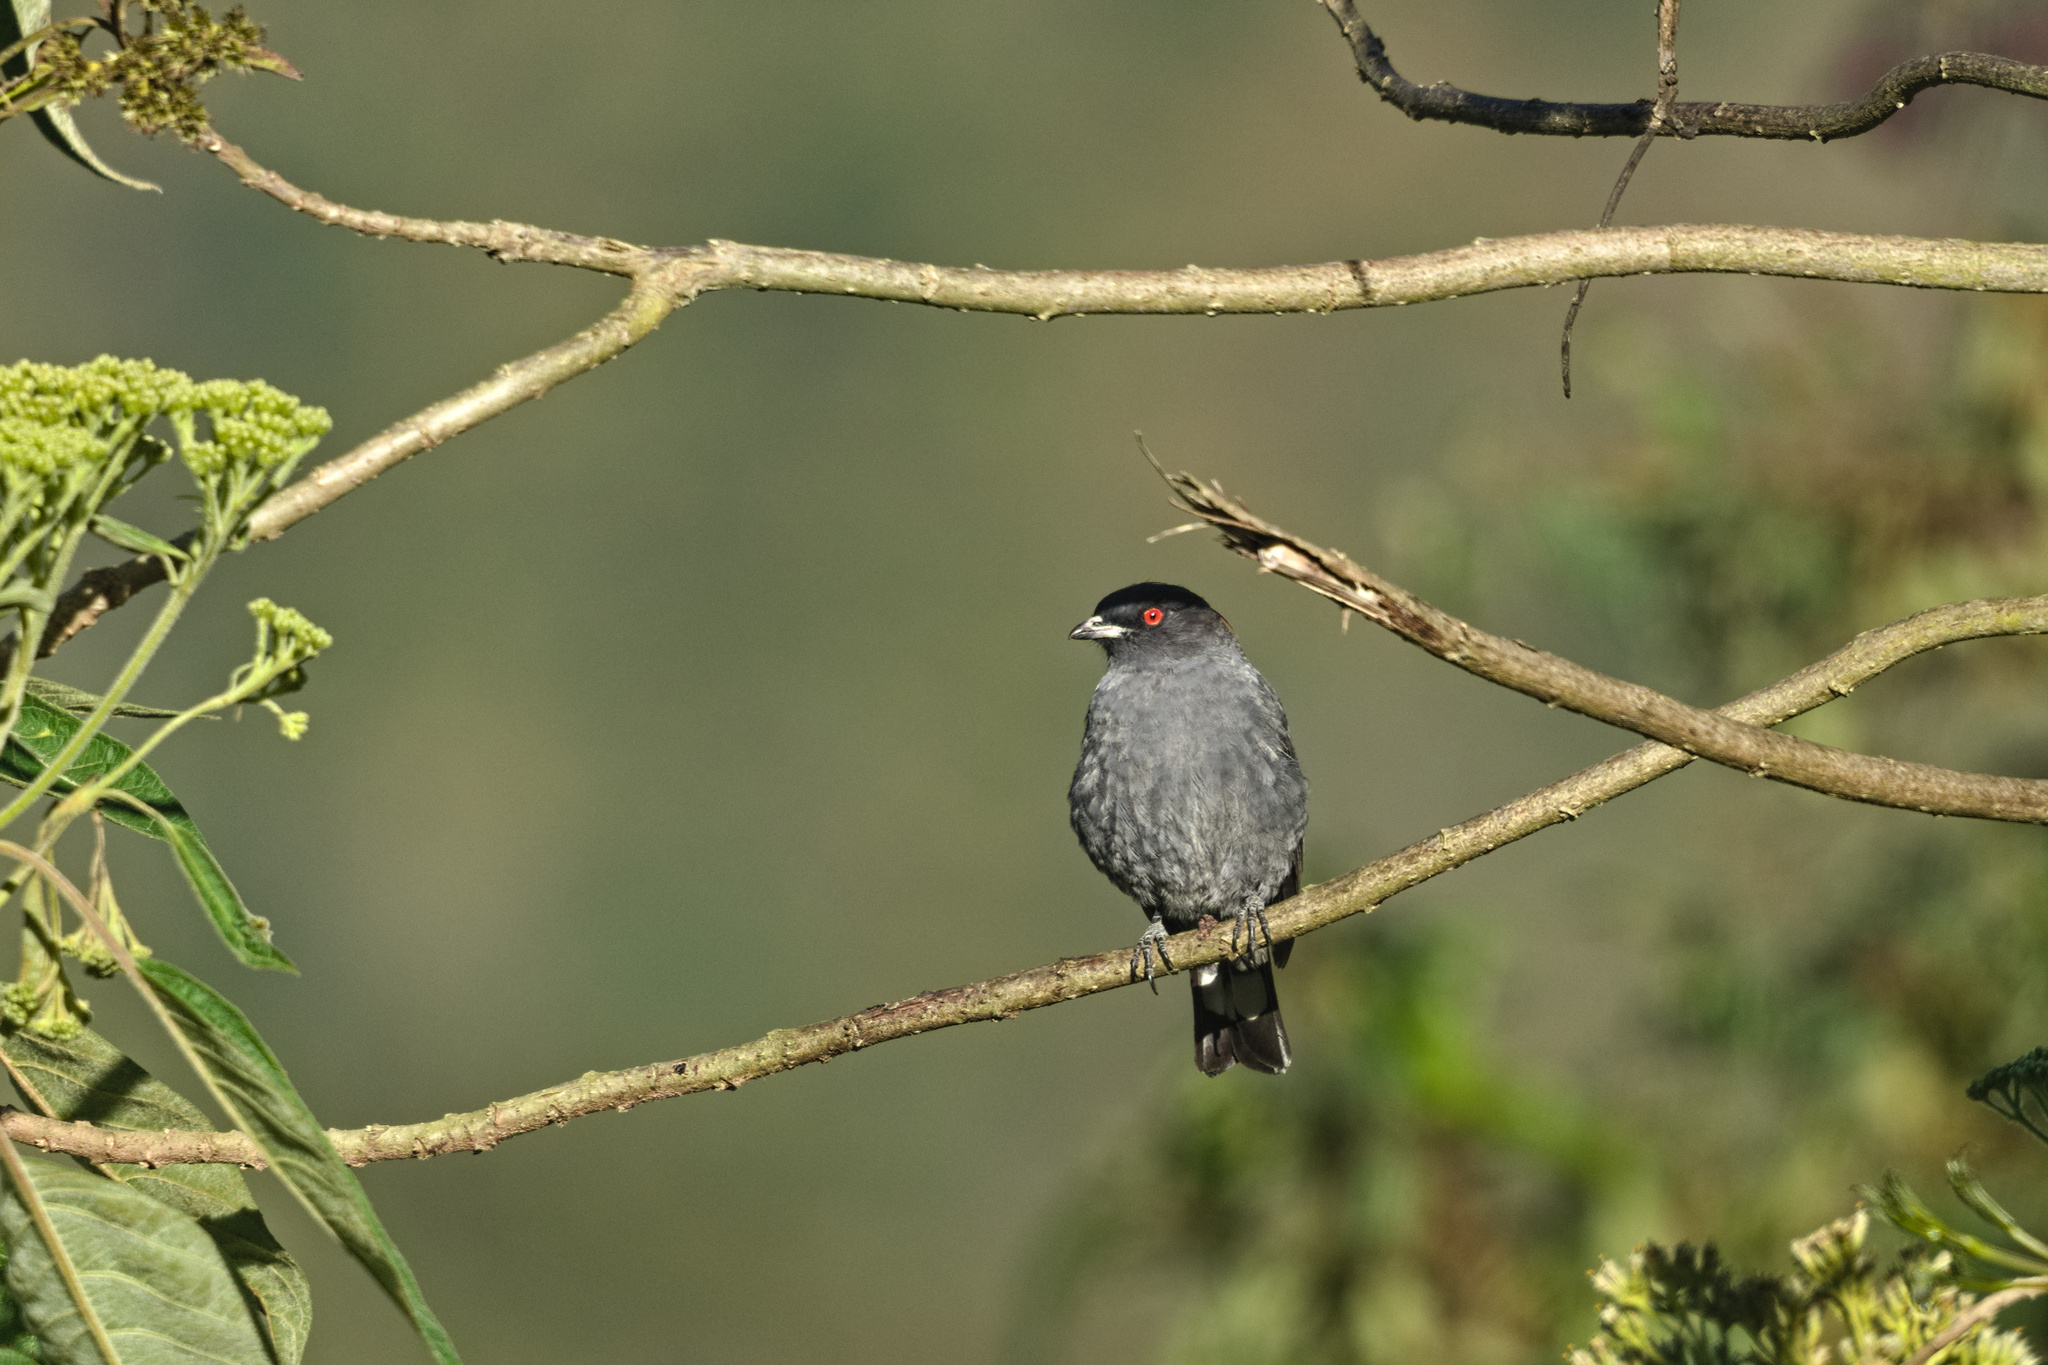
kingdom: Animalia
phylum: Chordata
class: Aves
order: Passeriformes
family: Cotingidae
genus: Ampelion
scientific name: Ampelion rubrocristatus
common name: Red-crested cotinga
